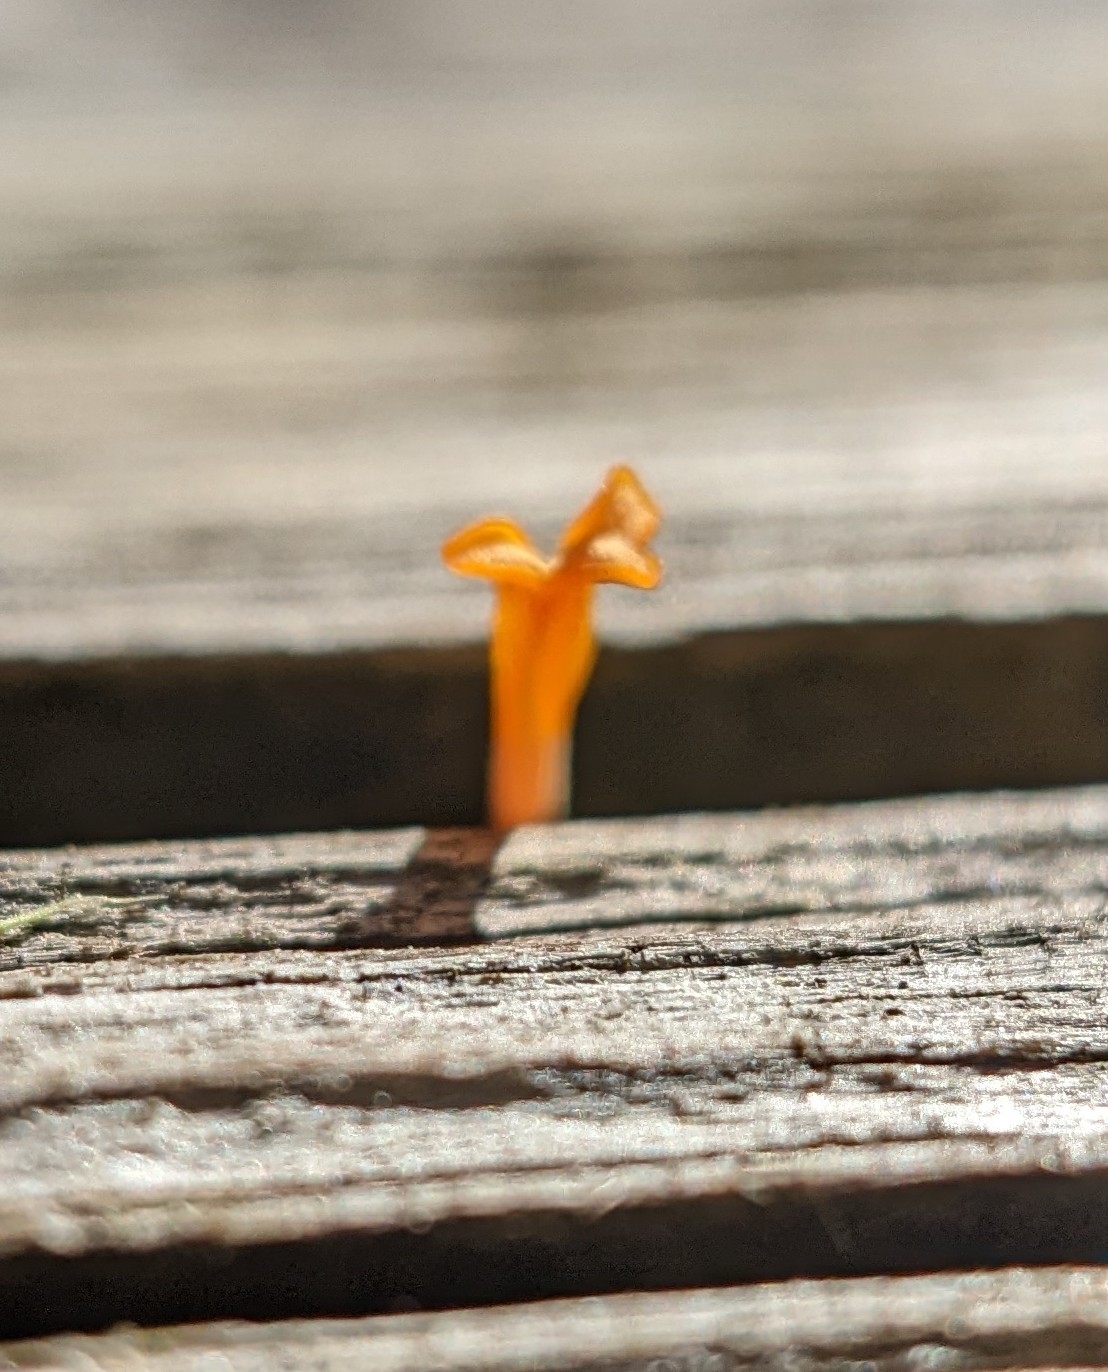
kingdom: Fungi
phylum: Basidiomycota
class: Dacrymycetes
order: Dacrymycetales
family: Dacrymycetaceae
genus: Dacrymyces
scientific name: Dacrymyces spathularius
